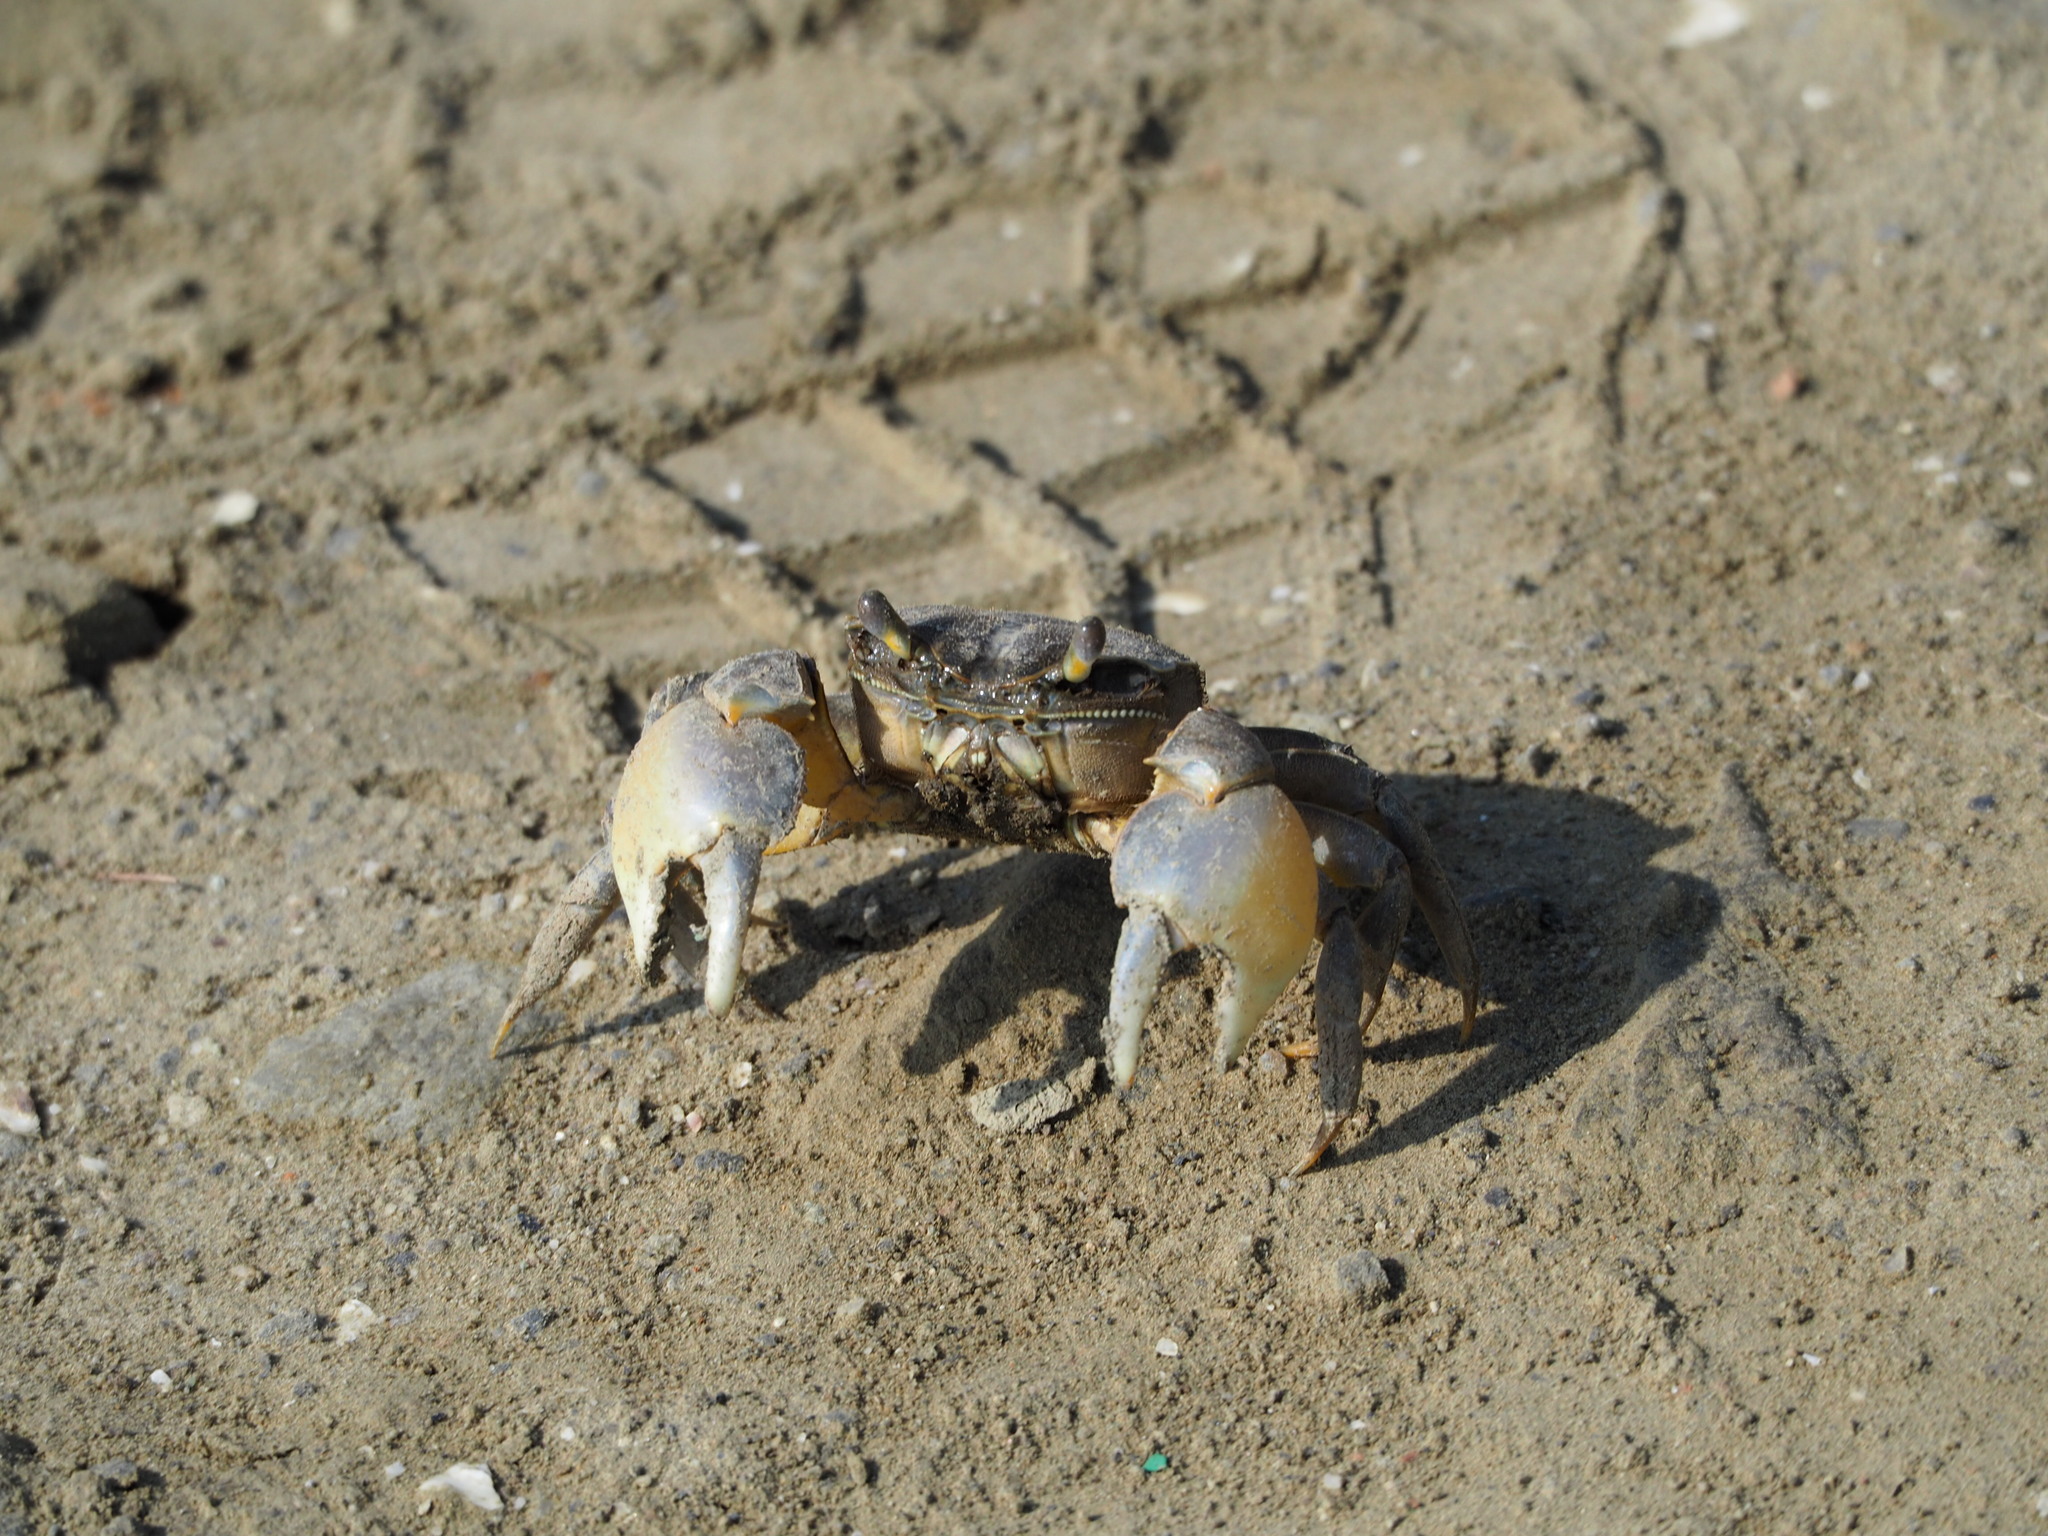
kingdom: Animalia
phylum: Arthropoda
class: Malacostraca
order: Decapoda
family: Varunidae
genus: Helice
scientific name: Helice formosensis
